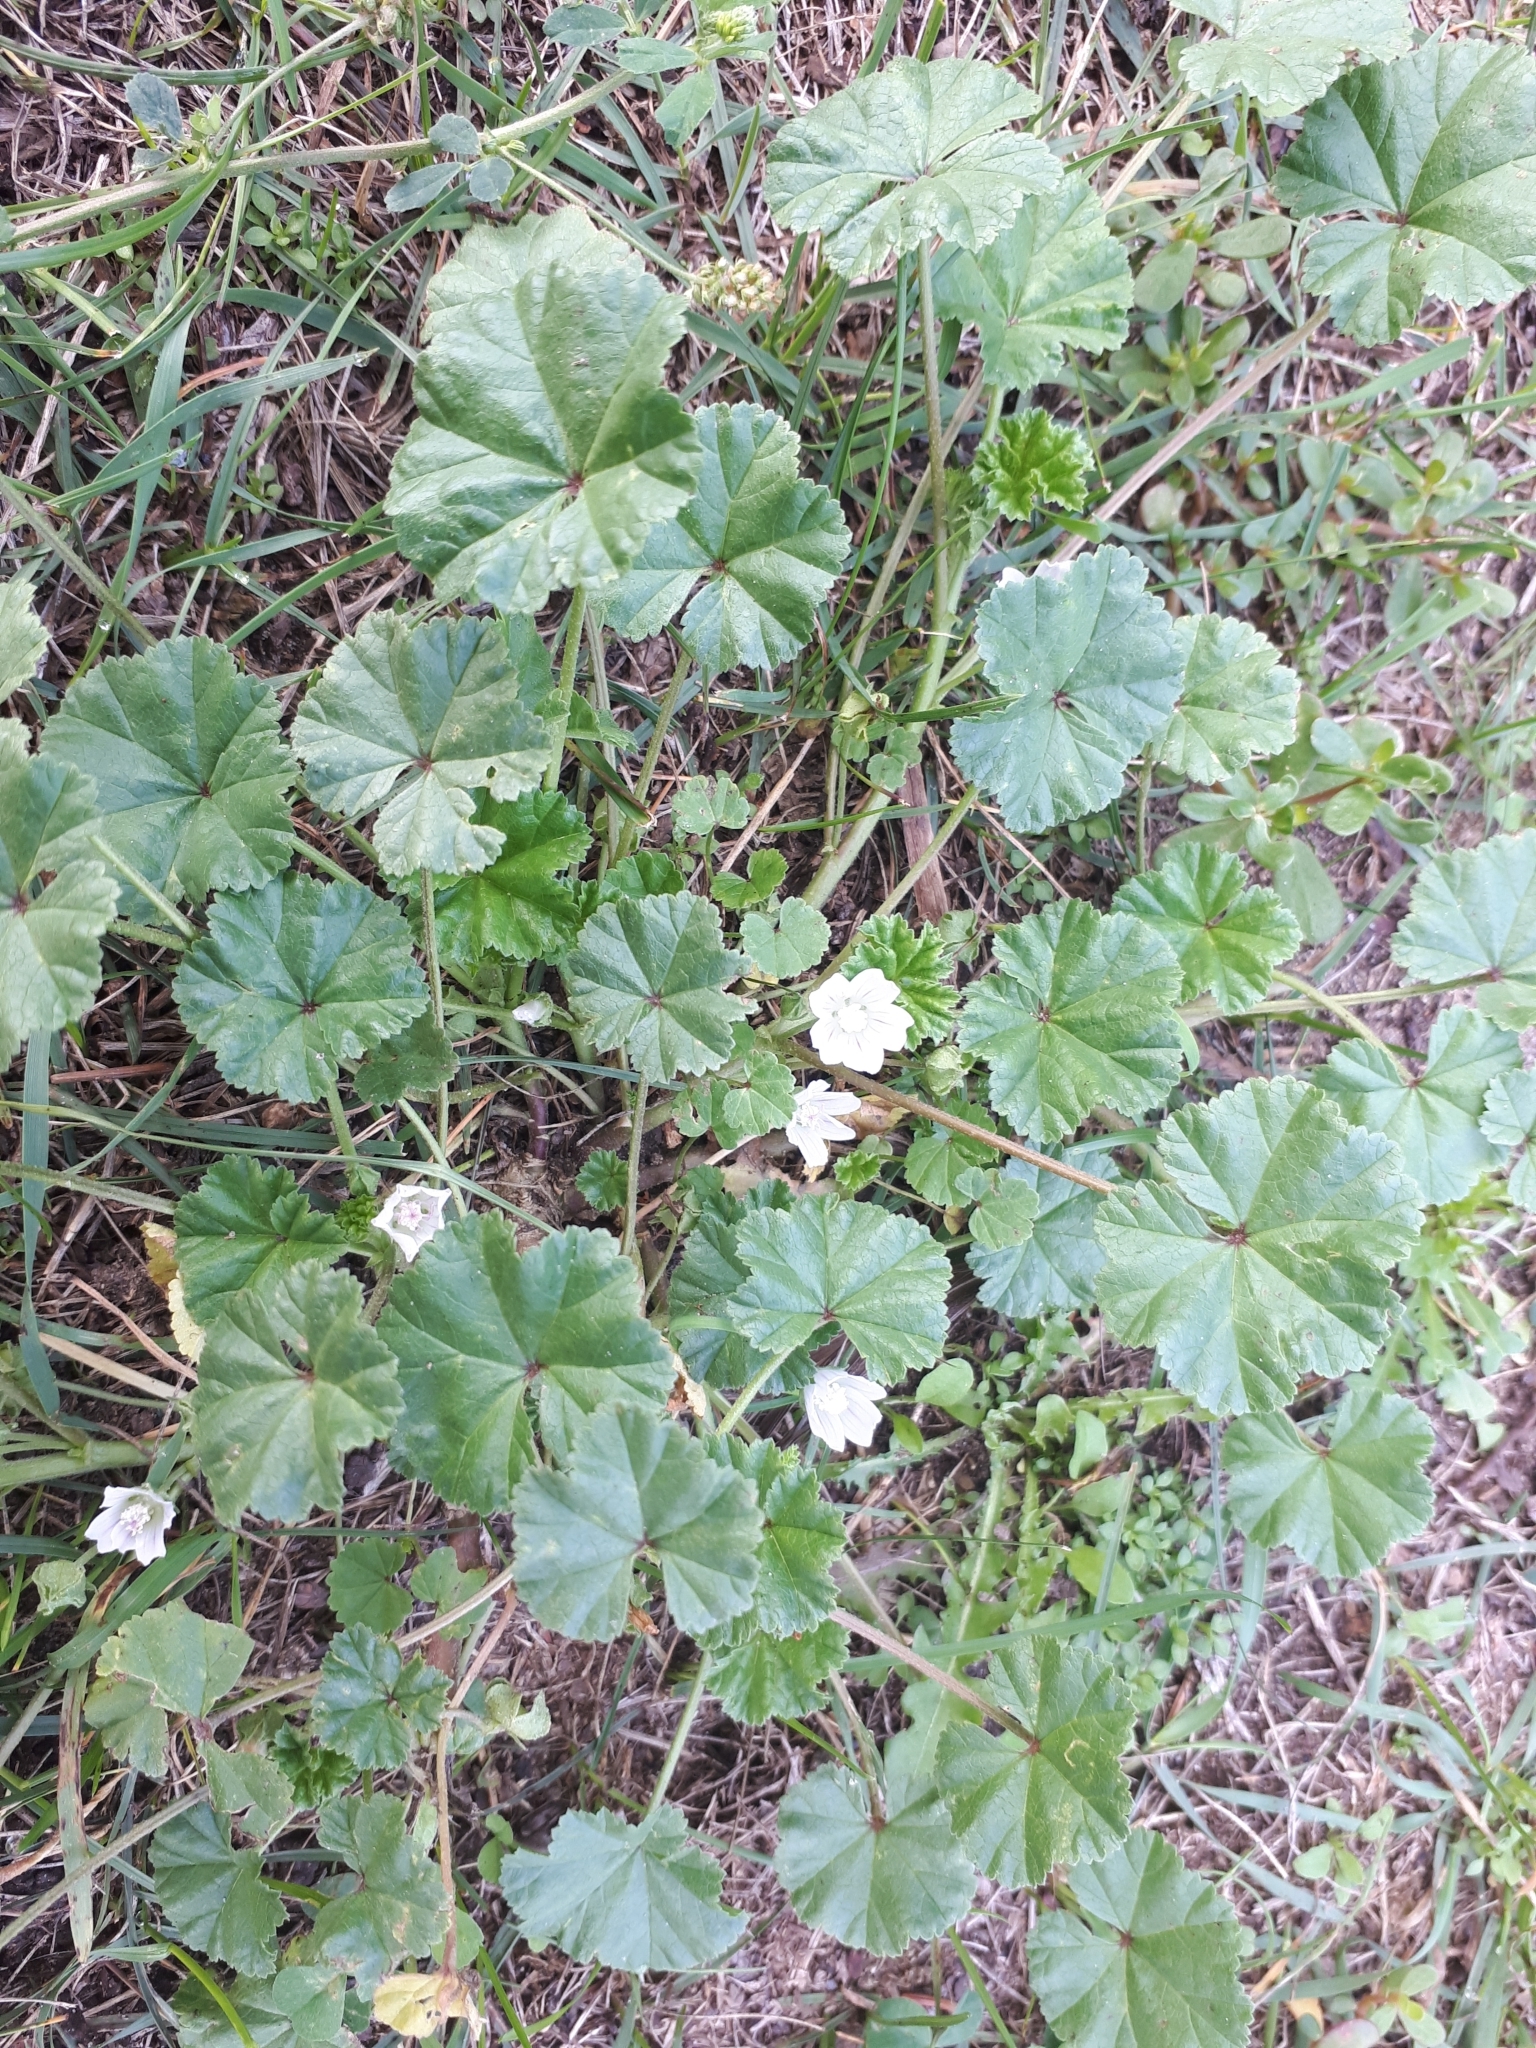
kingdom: Plantae
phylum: Tracheophyta
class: Magnoliopsida
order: Malvales
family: Malvaceae
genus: Malva
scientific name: Malva neglecta
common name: Common mallow
